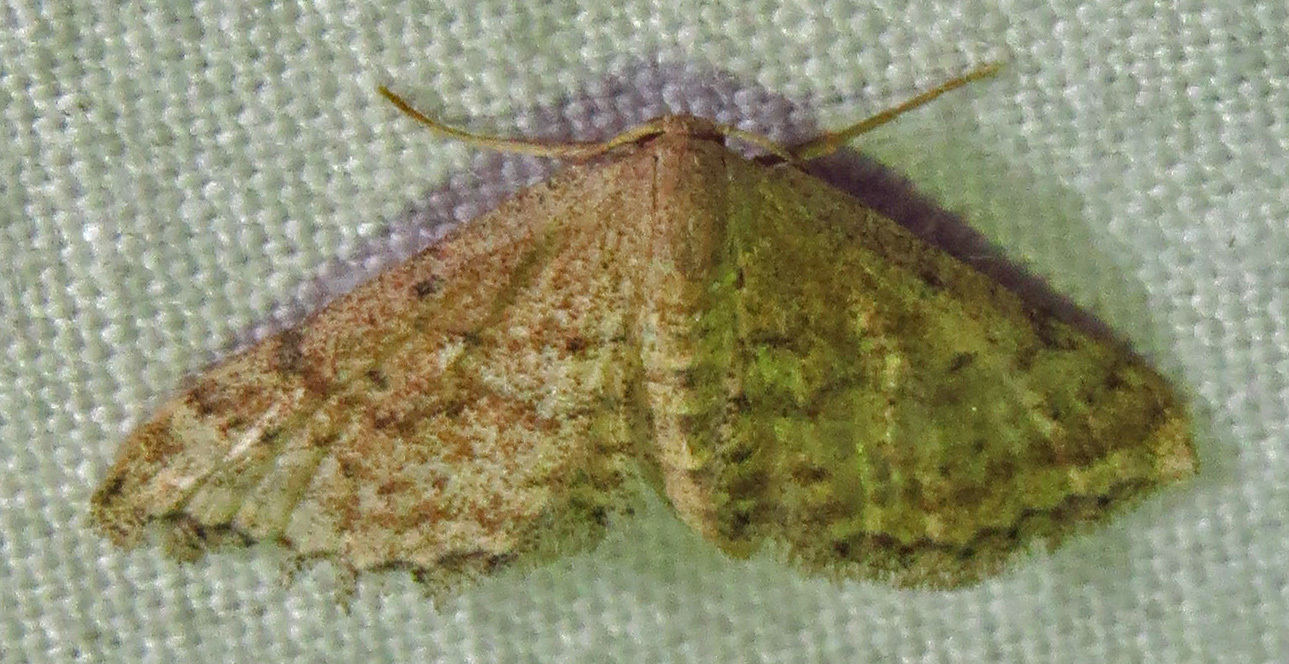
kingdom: Animalia
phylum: Arthropoda
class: Insecta
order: Lepidoptera
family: Geometridae
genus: Lobocleta
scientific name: Lobocleta ossularia
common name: Drab brown wave
